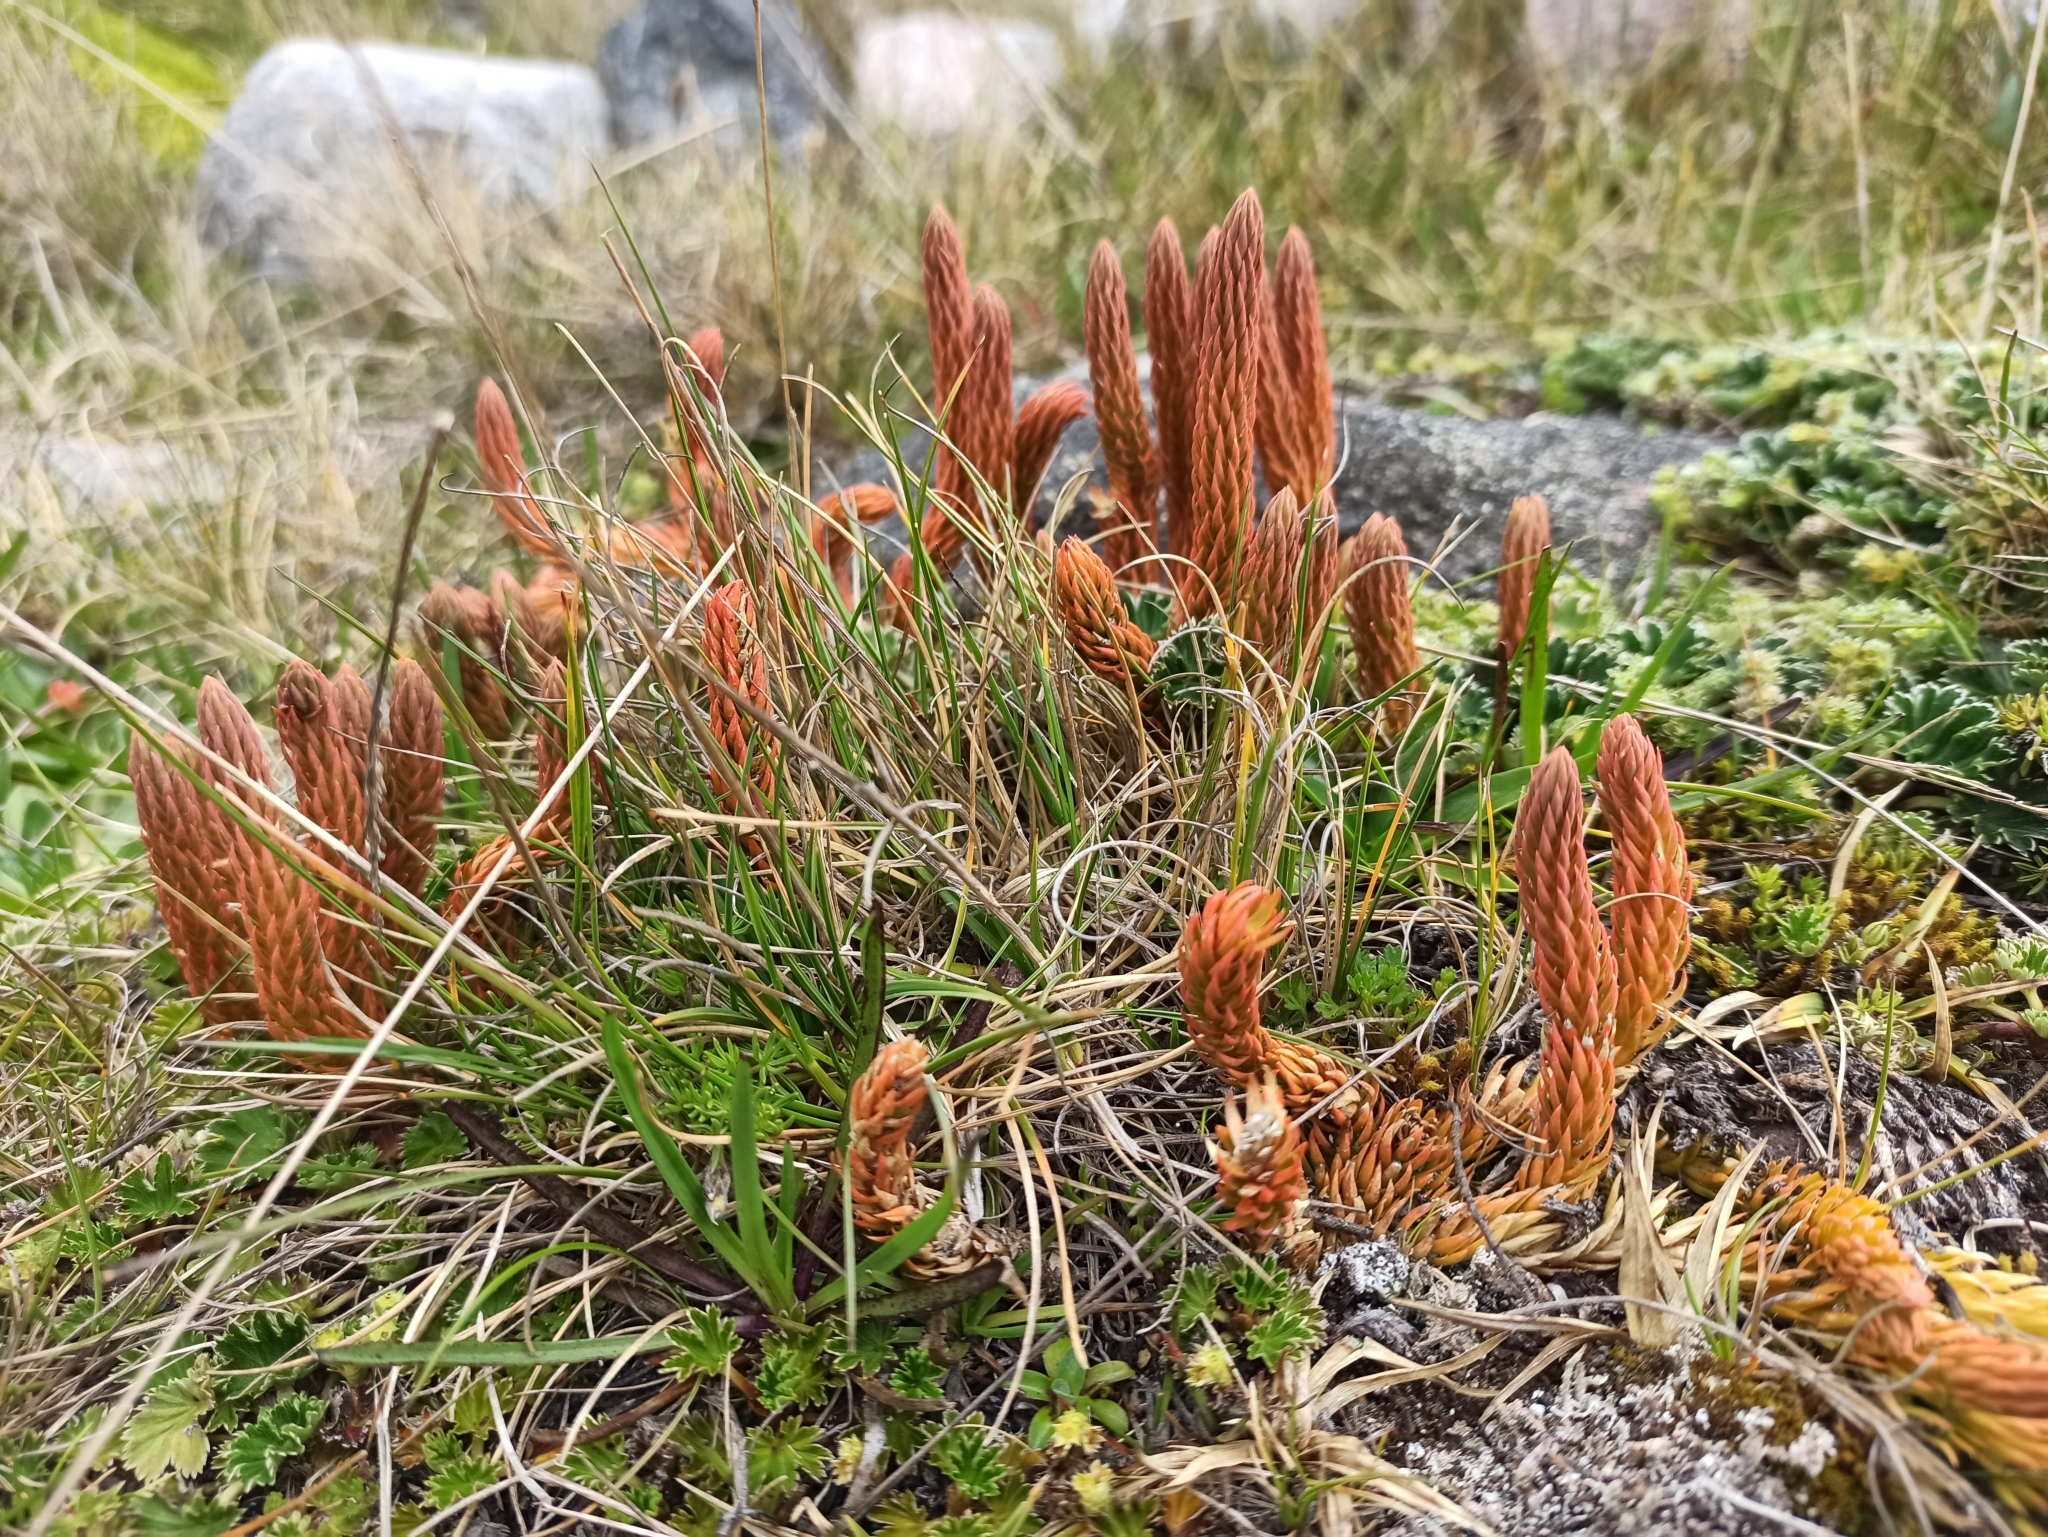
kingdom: Plantae
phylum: Tracheophyta
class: Lycopodiopsida
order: Lycopodiales
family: Lycopodiaceae
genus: Phlegmariurus
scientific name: Phlegmariurus crassus
